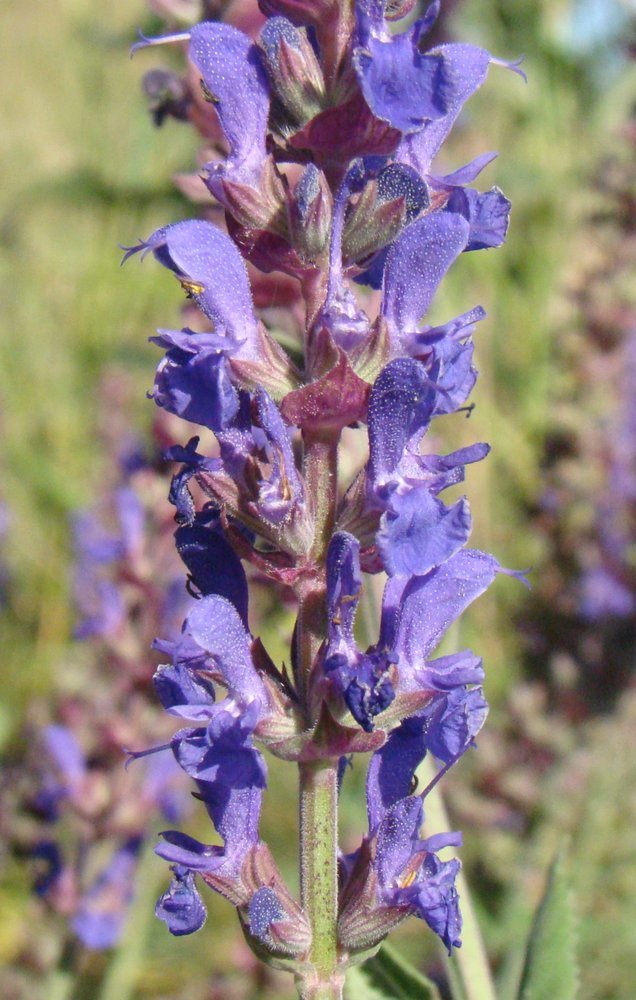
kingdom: Plantae
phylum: Tracheophyta
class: Magnoliopsida
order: Lamiales
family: Lamiaceae
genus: Salvia
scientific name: Salvia nemorosa
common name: Balkan clary
